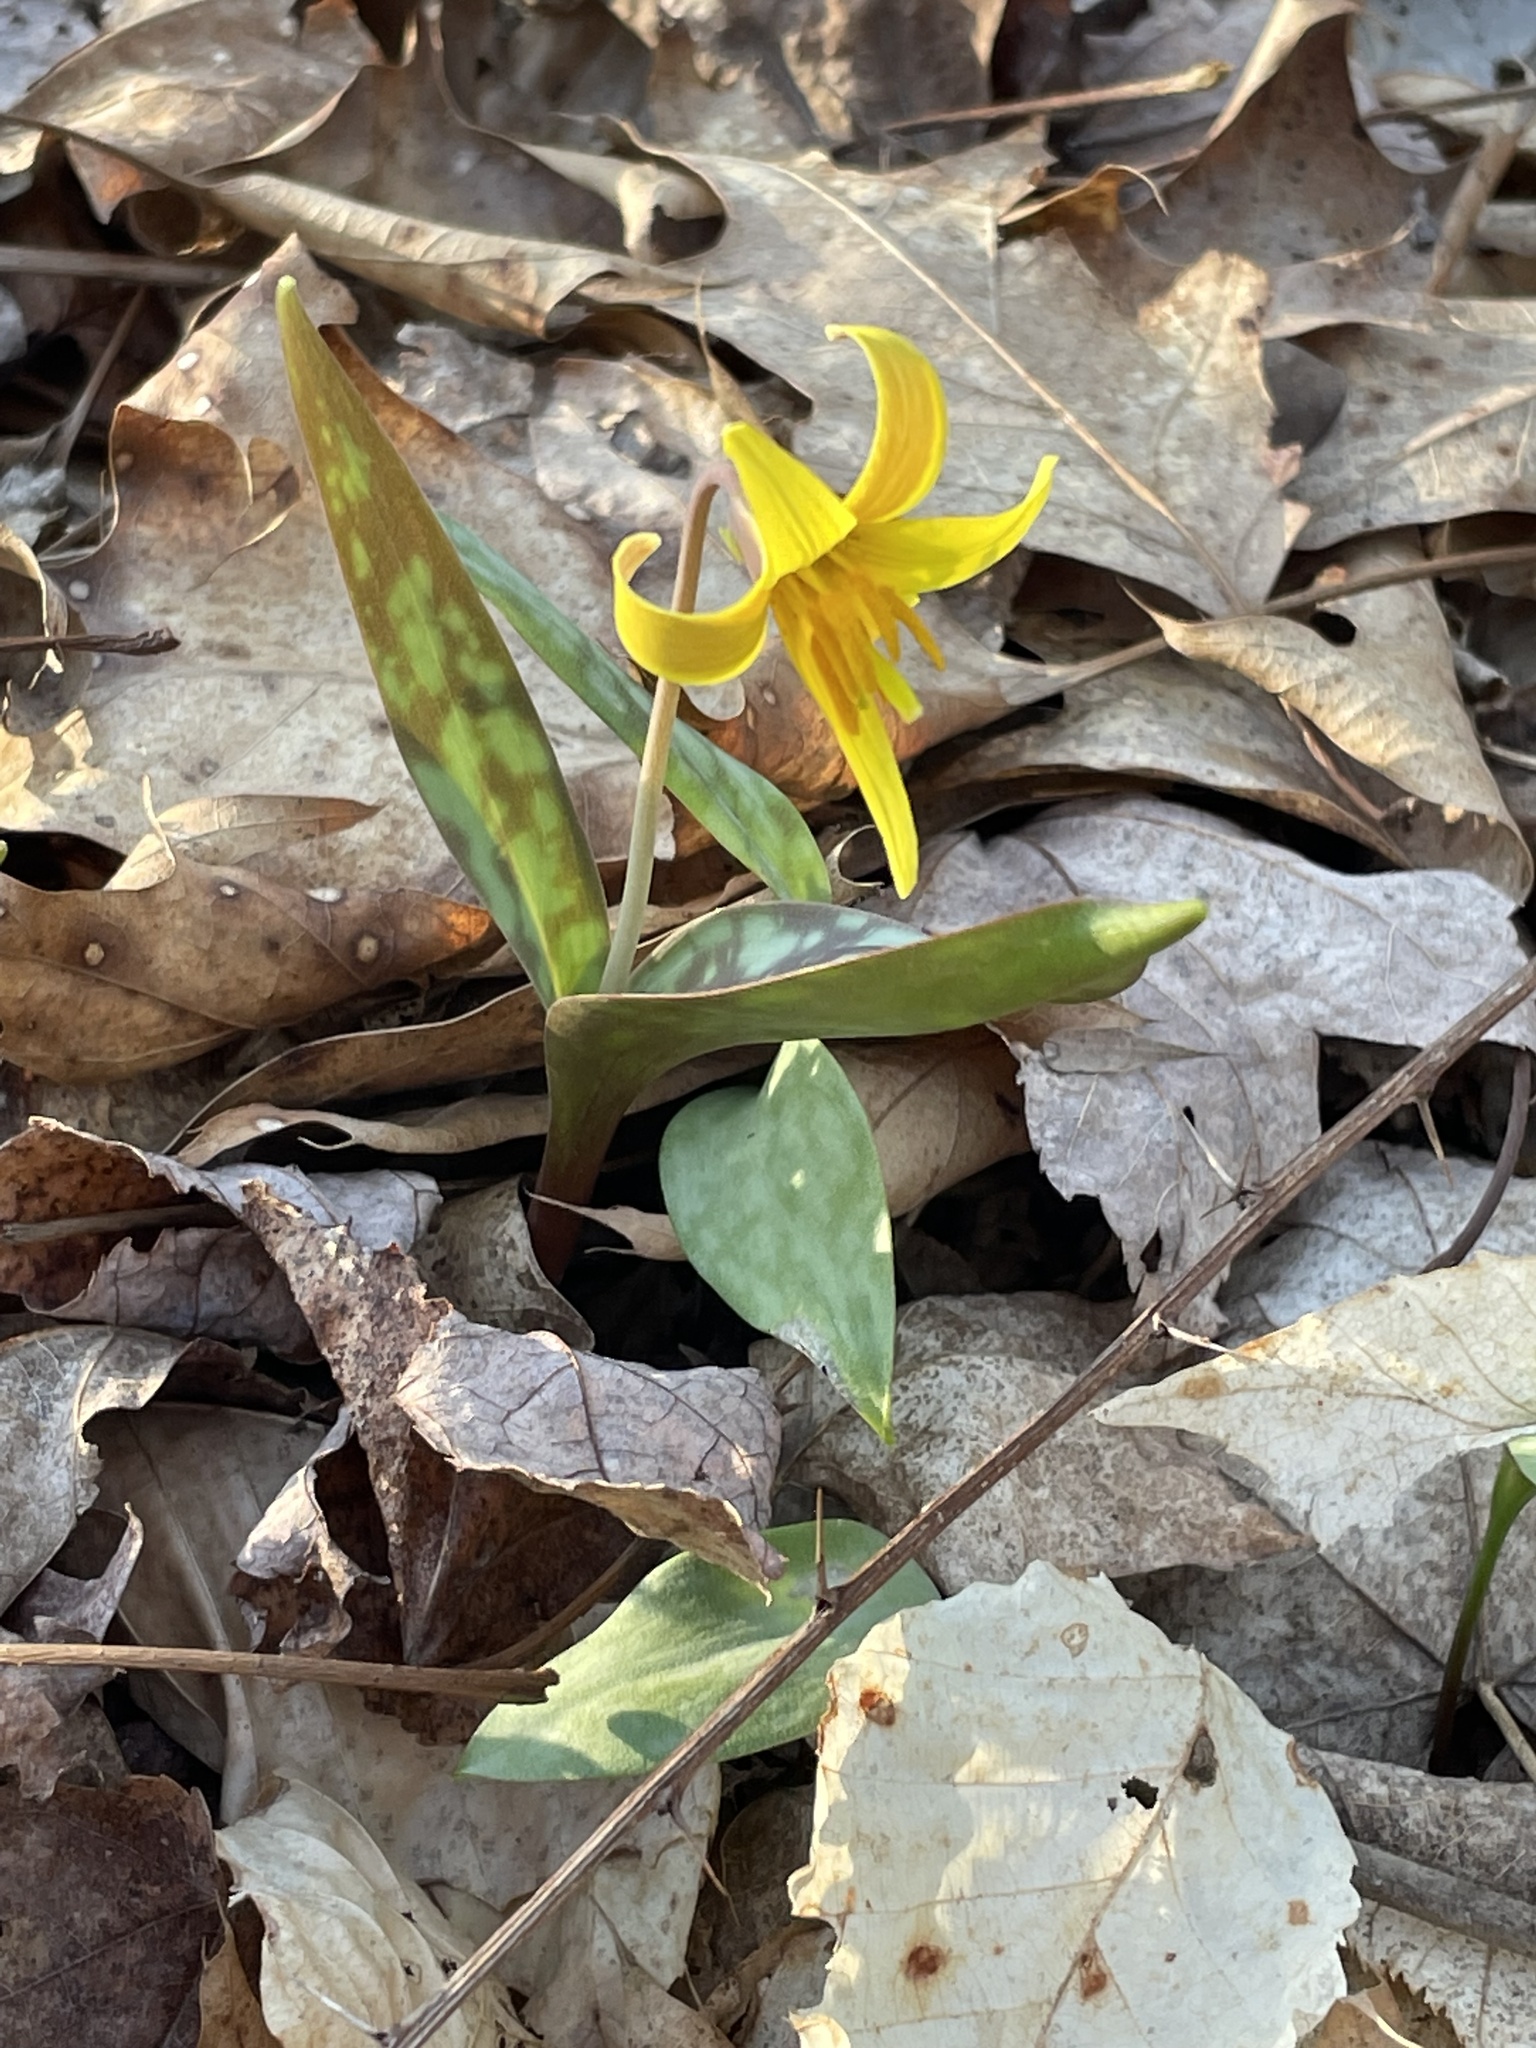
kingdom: Plantae
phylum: Tracheophyta
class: Liliopsida
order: Liliales
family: Liliaceae
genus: Erythronium
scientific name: Erythronium americanum
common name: Yellow adder's-tongue
